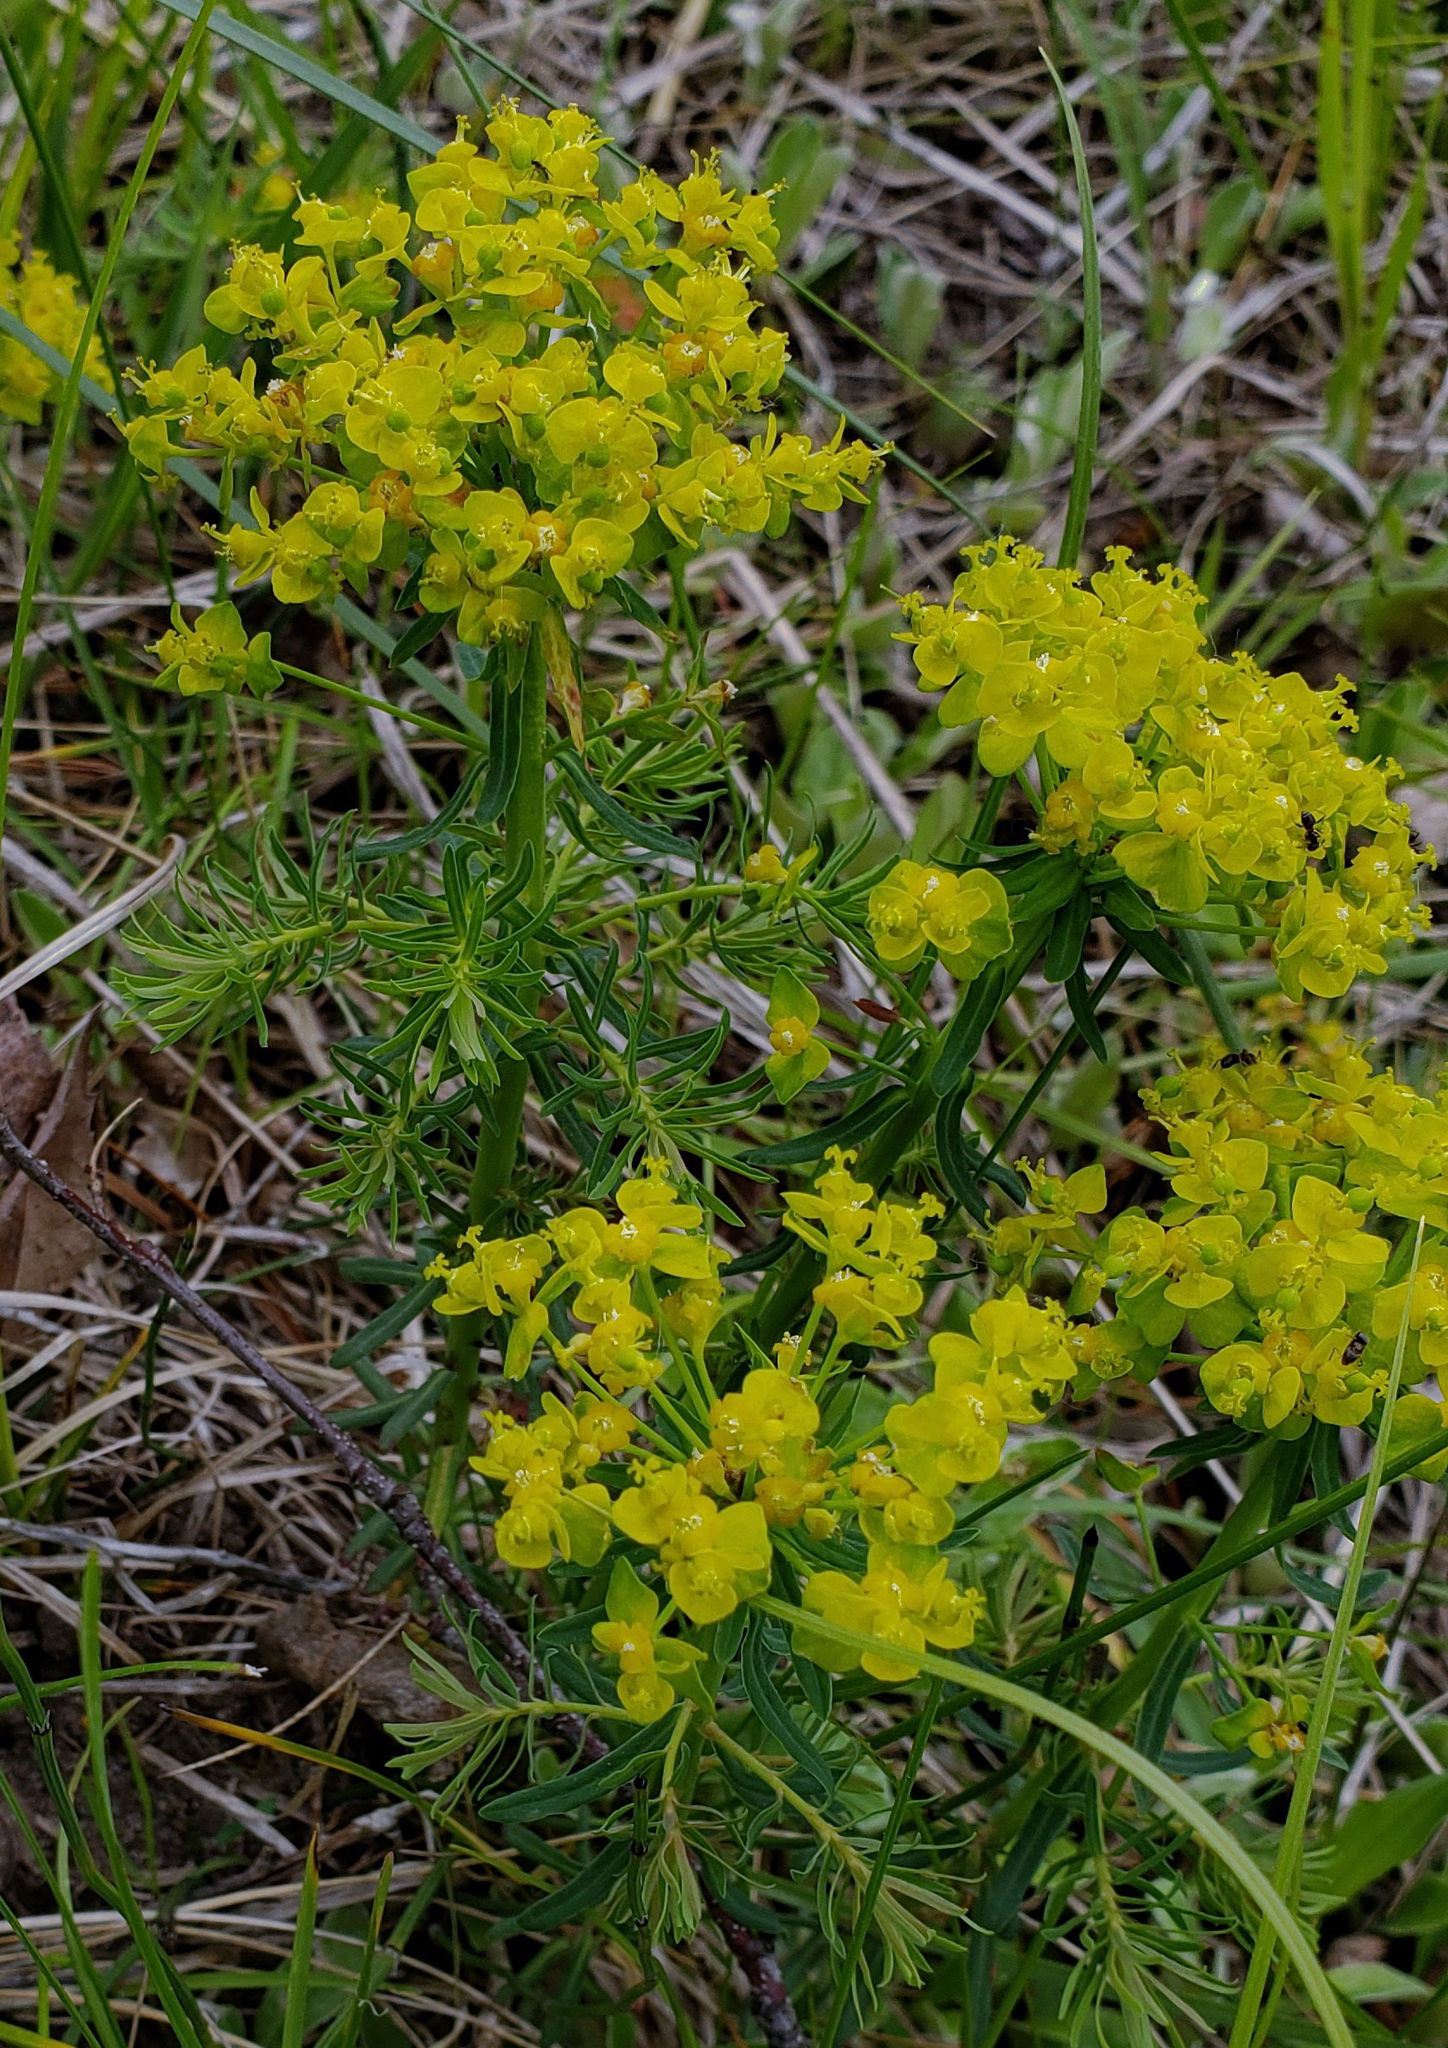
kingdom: Plantae
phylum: Tracheophyta
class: Magnoliopsida
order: Malpighiales
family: Euphorbiaceae
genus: Euphorbia
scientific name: Euphorbia cyparissias
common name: Cypress spurge
